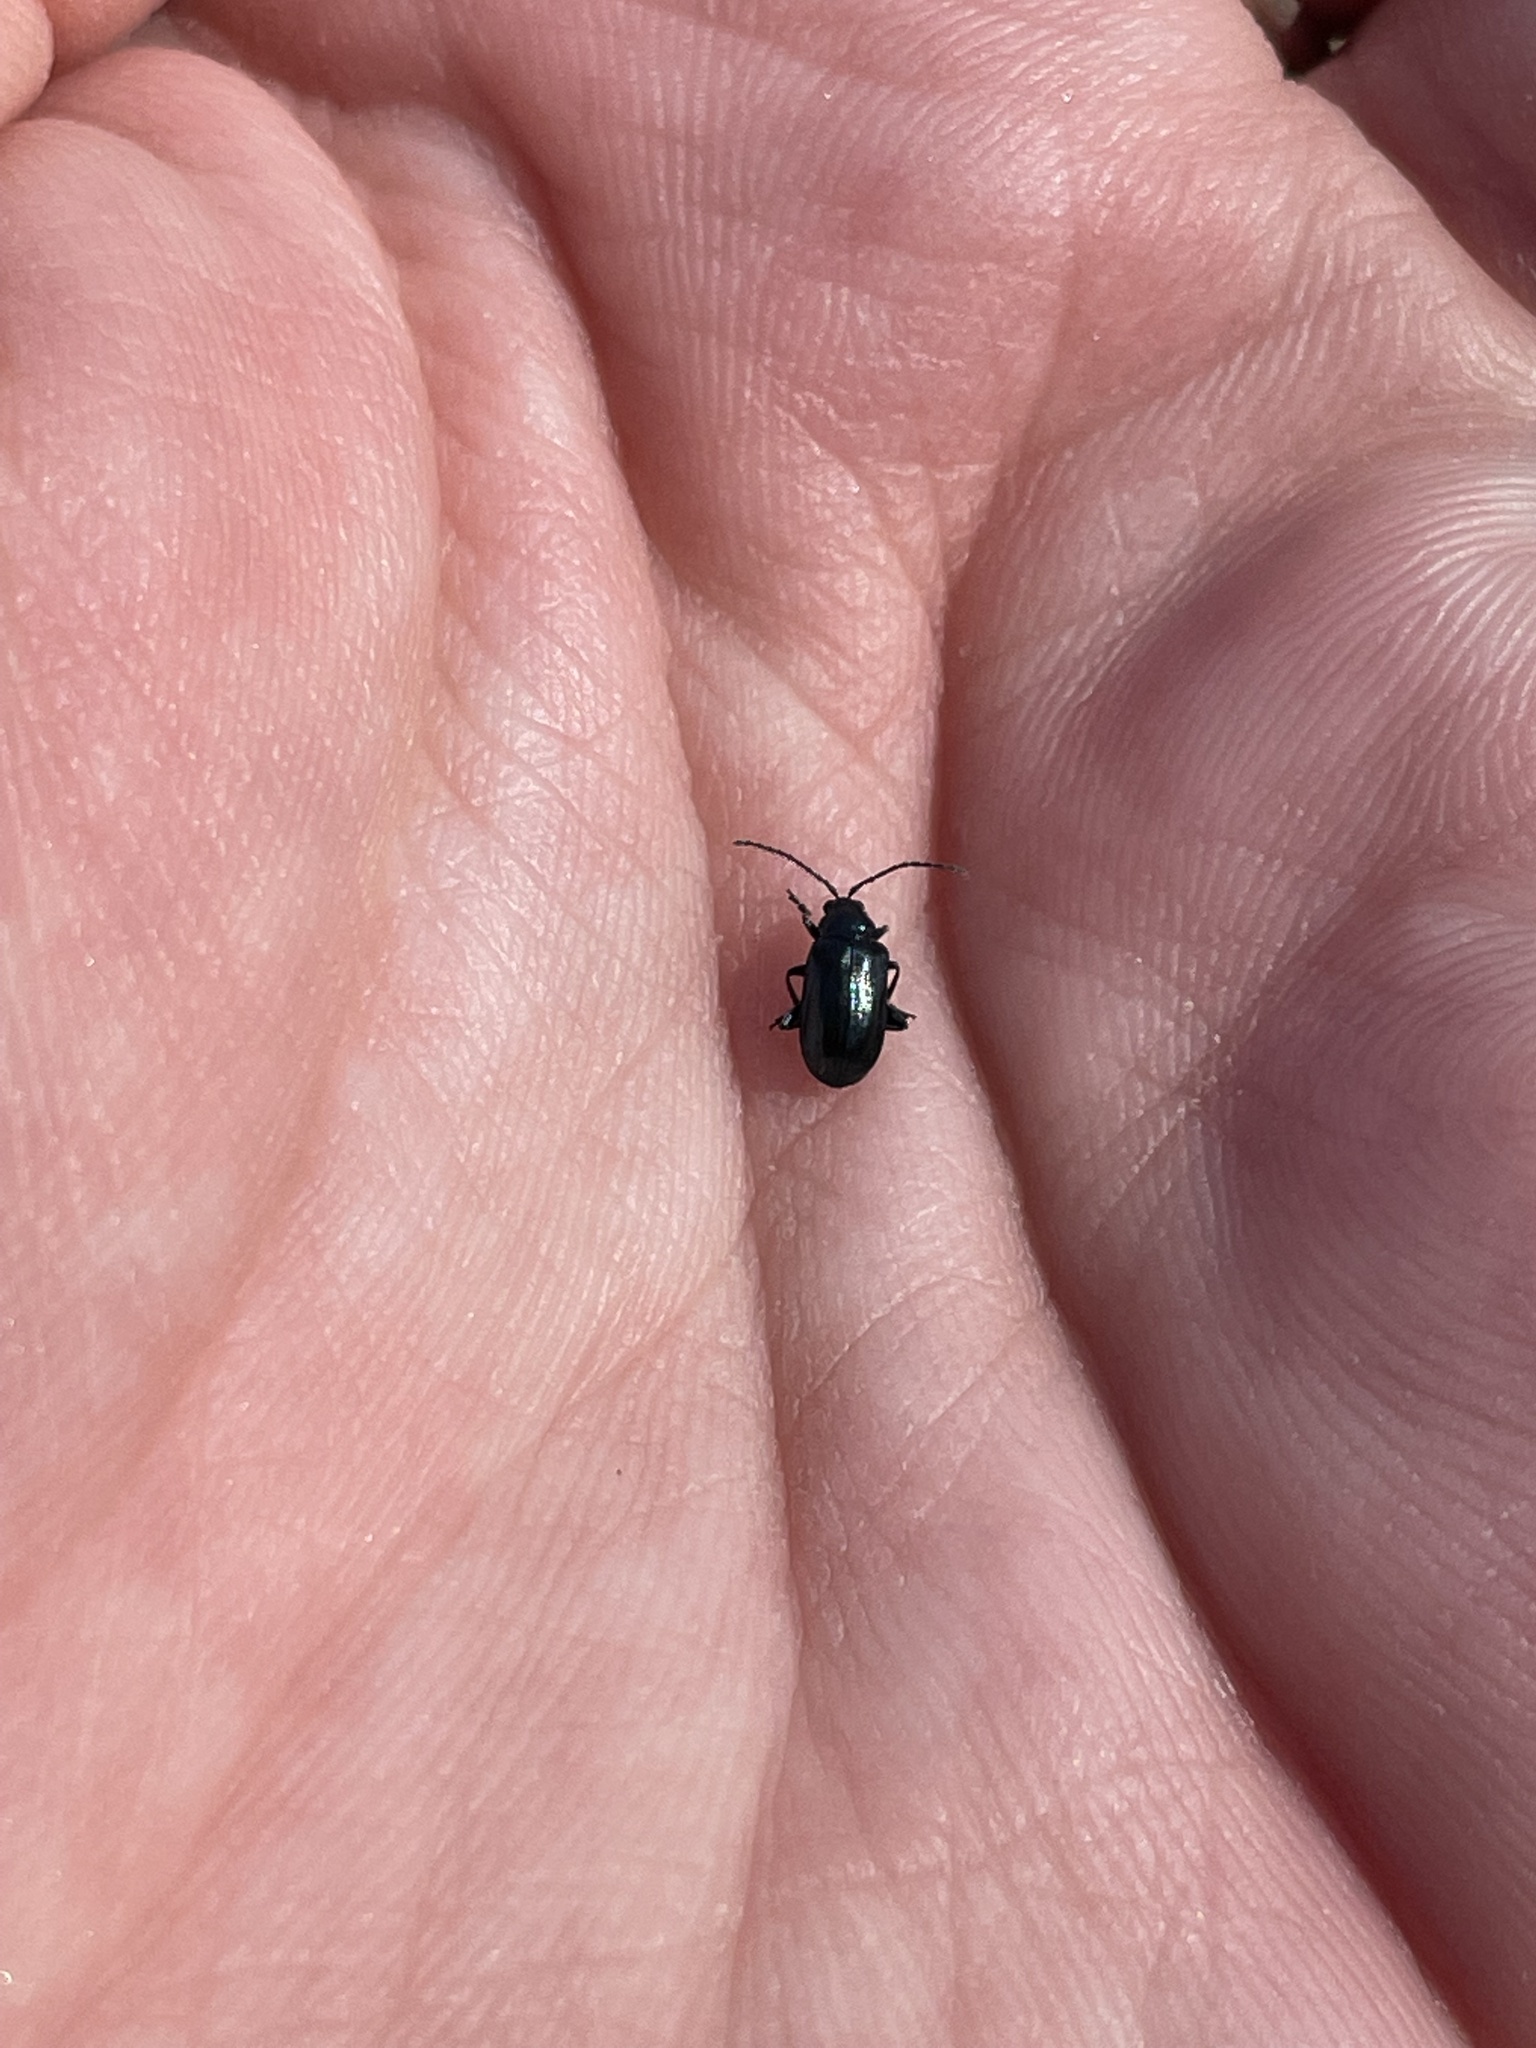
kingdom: Animalia
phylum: Arthropoda
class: Insecta
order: Coleoptera
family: Chrysomelidae
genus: Altica
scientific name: Altica ambiens
